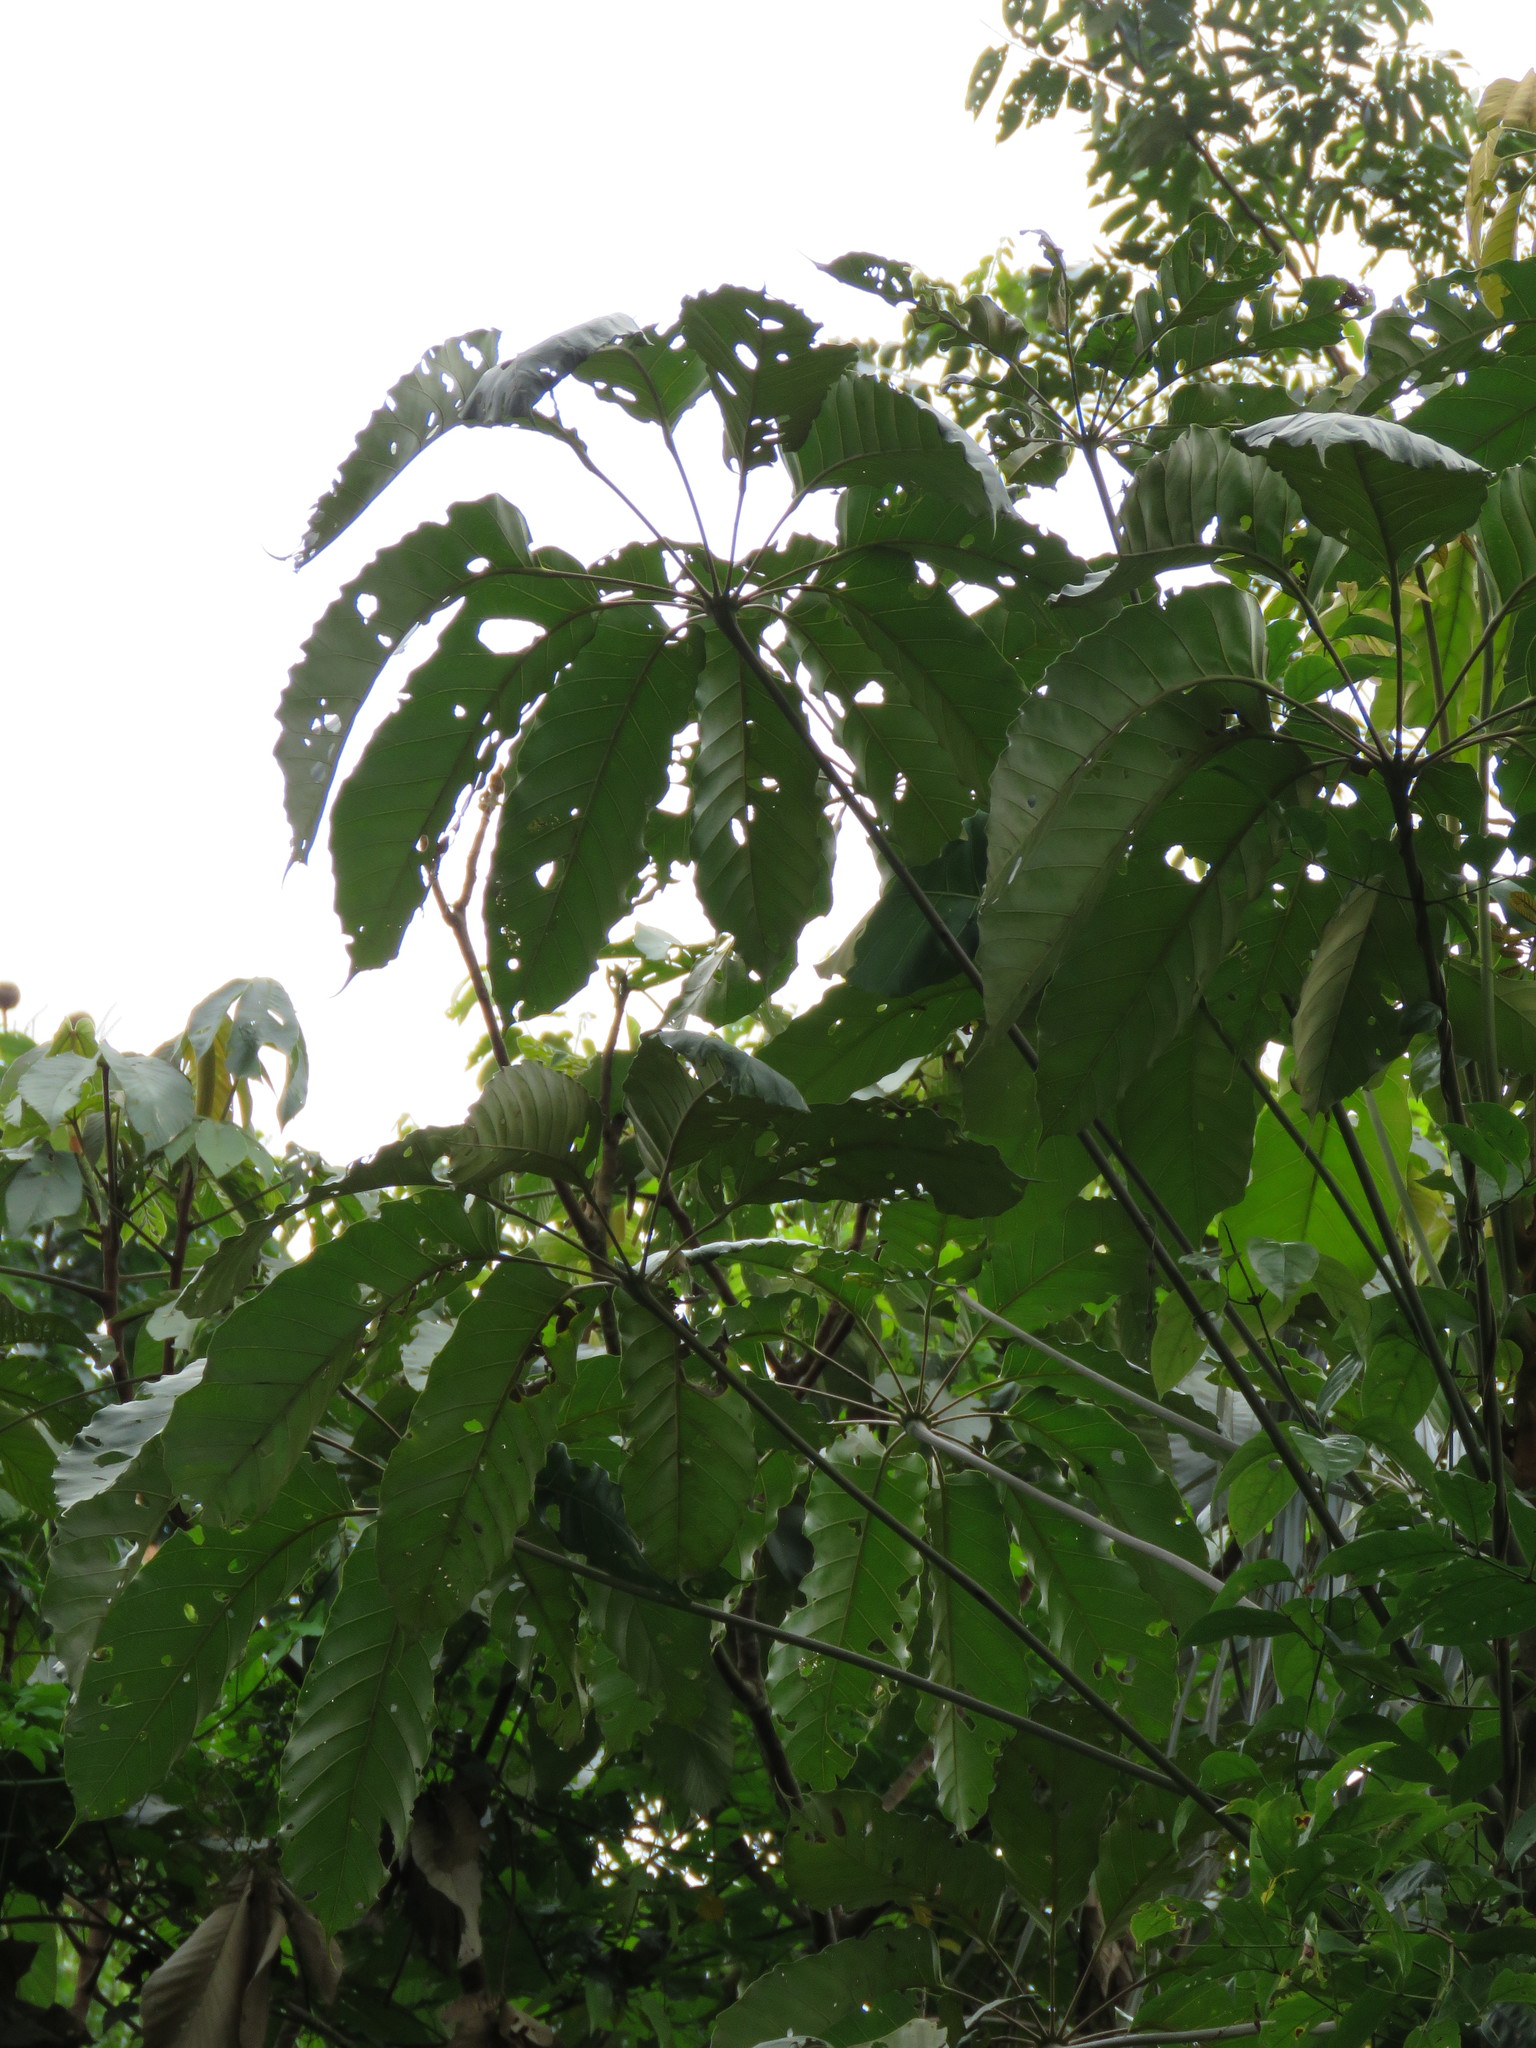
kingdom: Plantae
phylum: Tracheophyta
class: Magnoliopsida
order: Apiales
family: Araliaceae
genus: Didymopanax
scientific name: Didymopanax morototoni
